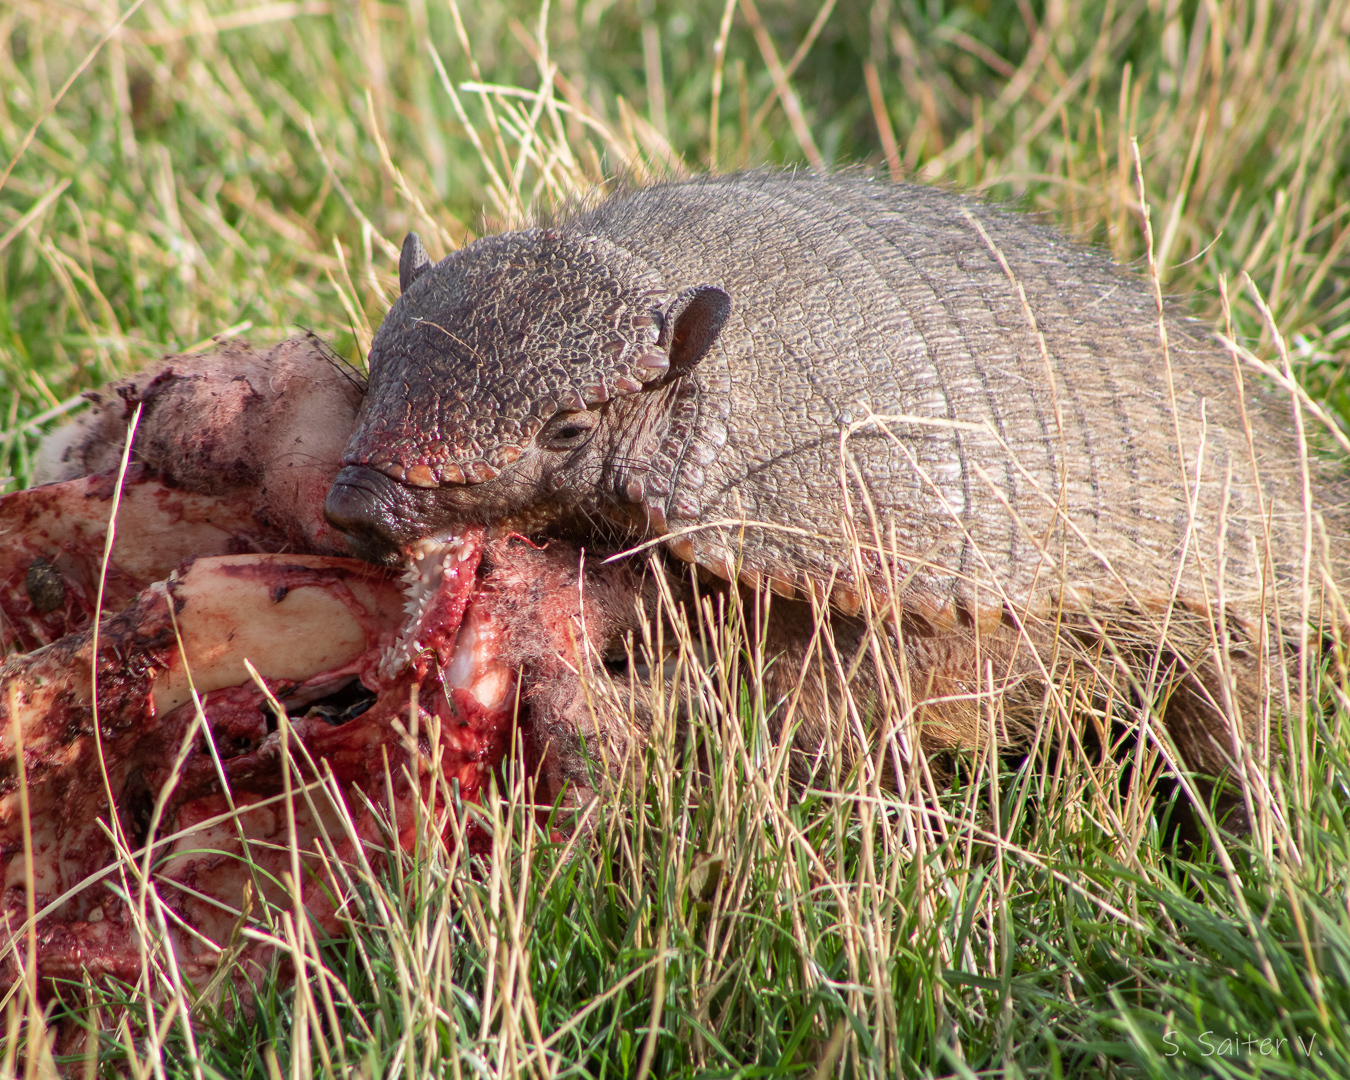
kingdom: Animalia
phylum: Chordata
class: Mammalia
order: Cingulata
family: Dasypodidae
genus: Chaetophractus
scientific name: Chaetophractus villosus
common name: Big hairy armadillo
